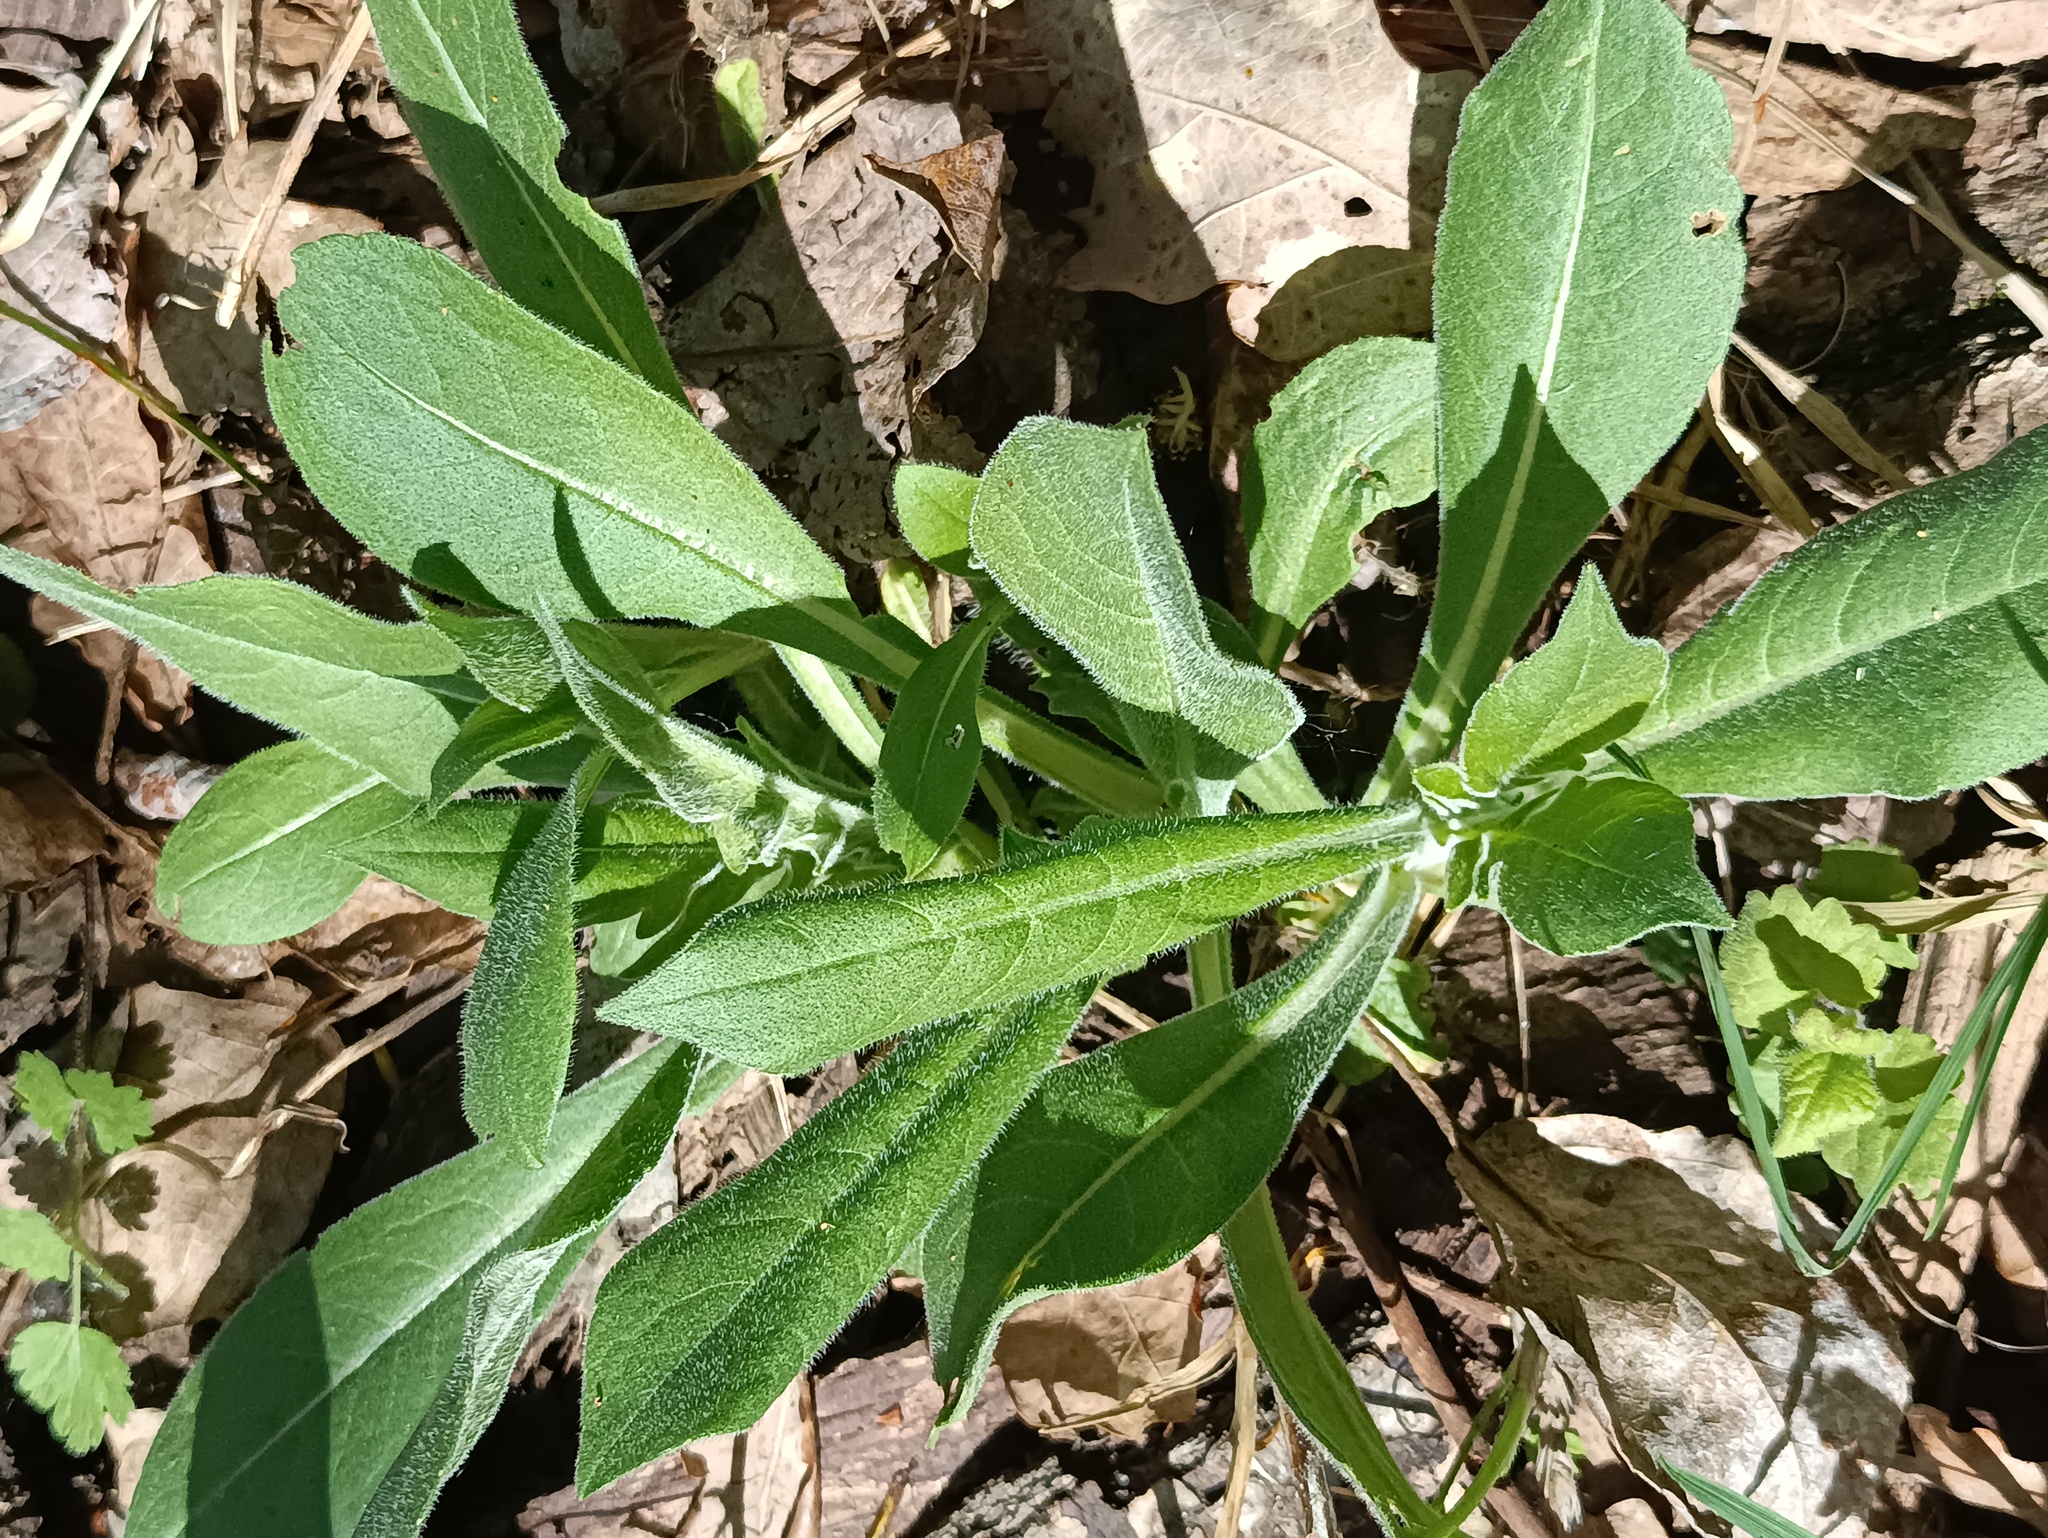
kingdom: Plantae
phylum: Tracheophyta
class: Magnoliopsida
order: Dipsacales
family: Caprifoliaceae
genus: Knautia
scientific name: Knautia arvensis
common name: Field scabiosa
